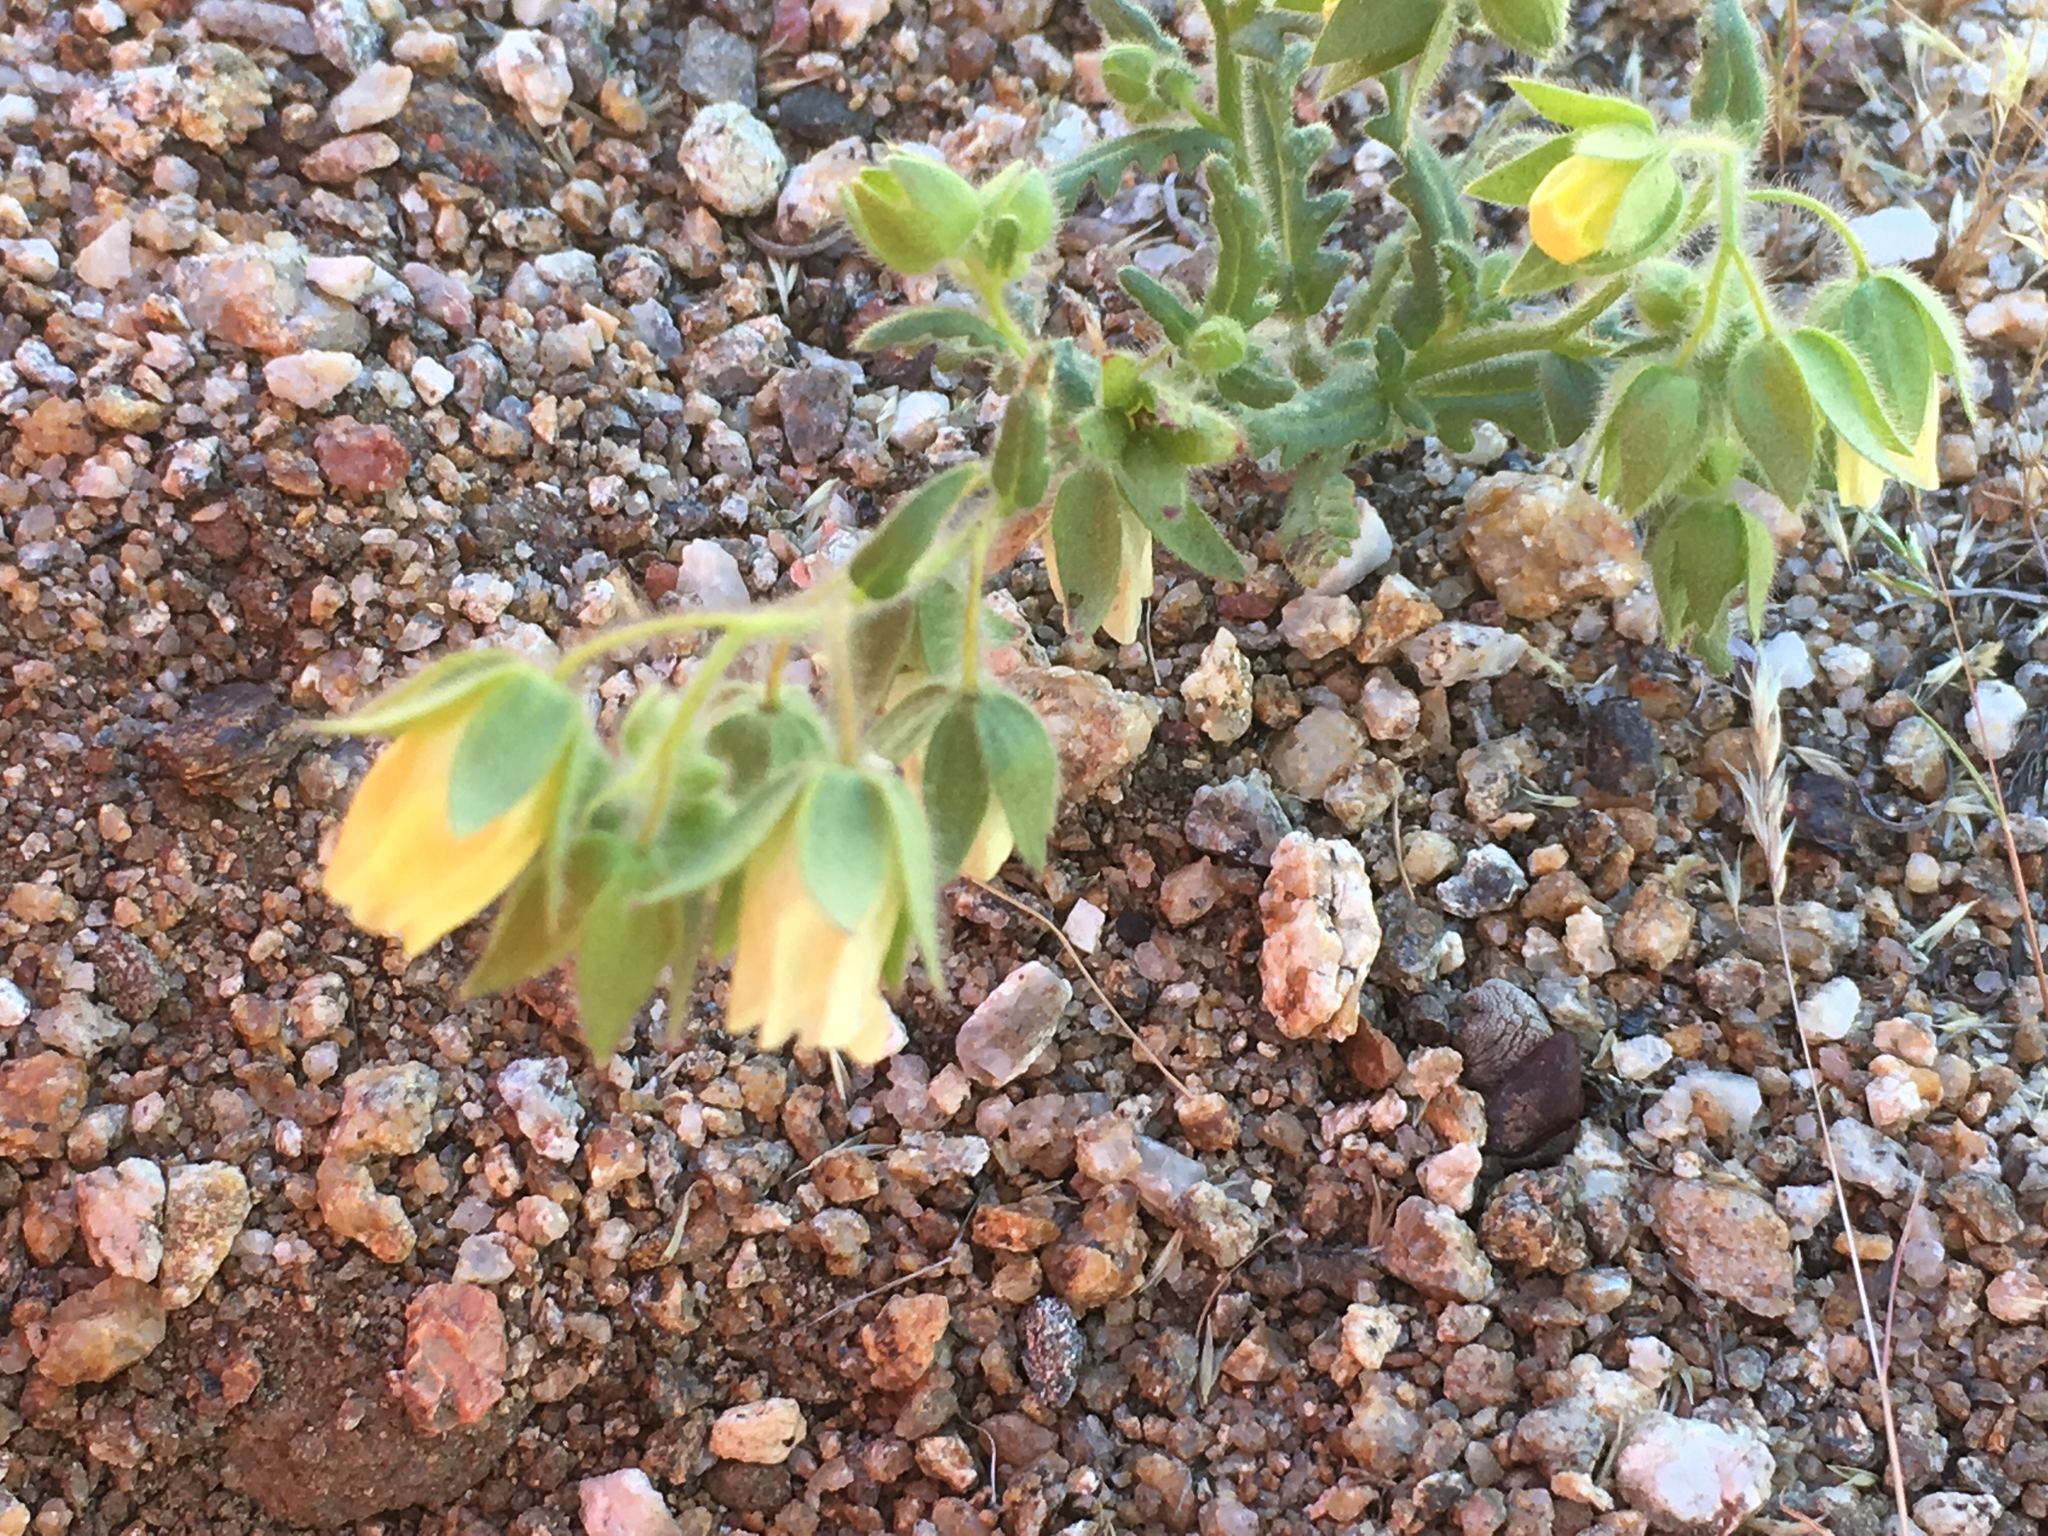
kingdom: Plantae
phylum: Tracheophyta
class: Magnoliopsida
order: Boraginales
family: Hydrophyllaceae
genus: Emmenanthe
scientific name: Emmenanthe penduliflora
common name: Whispering-bells
